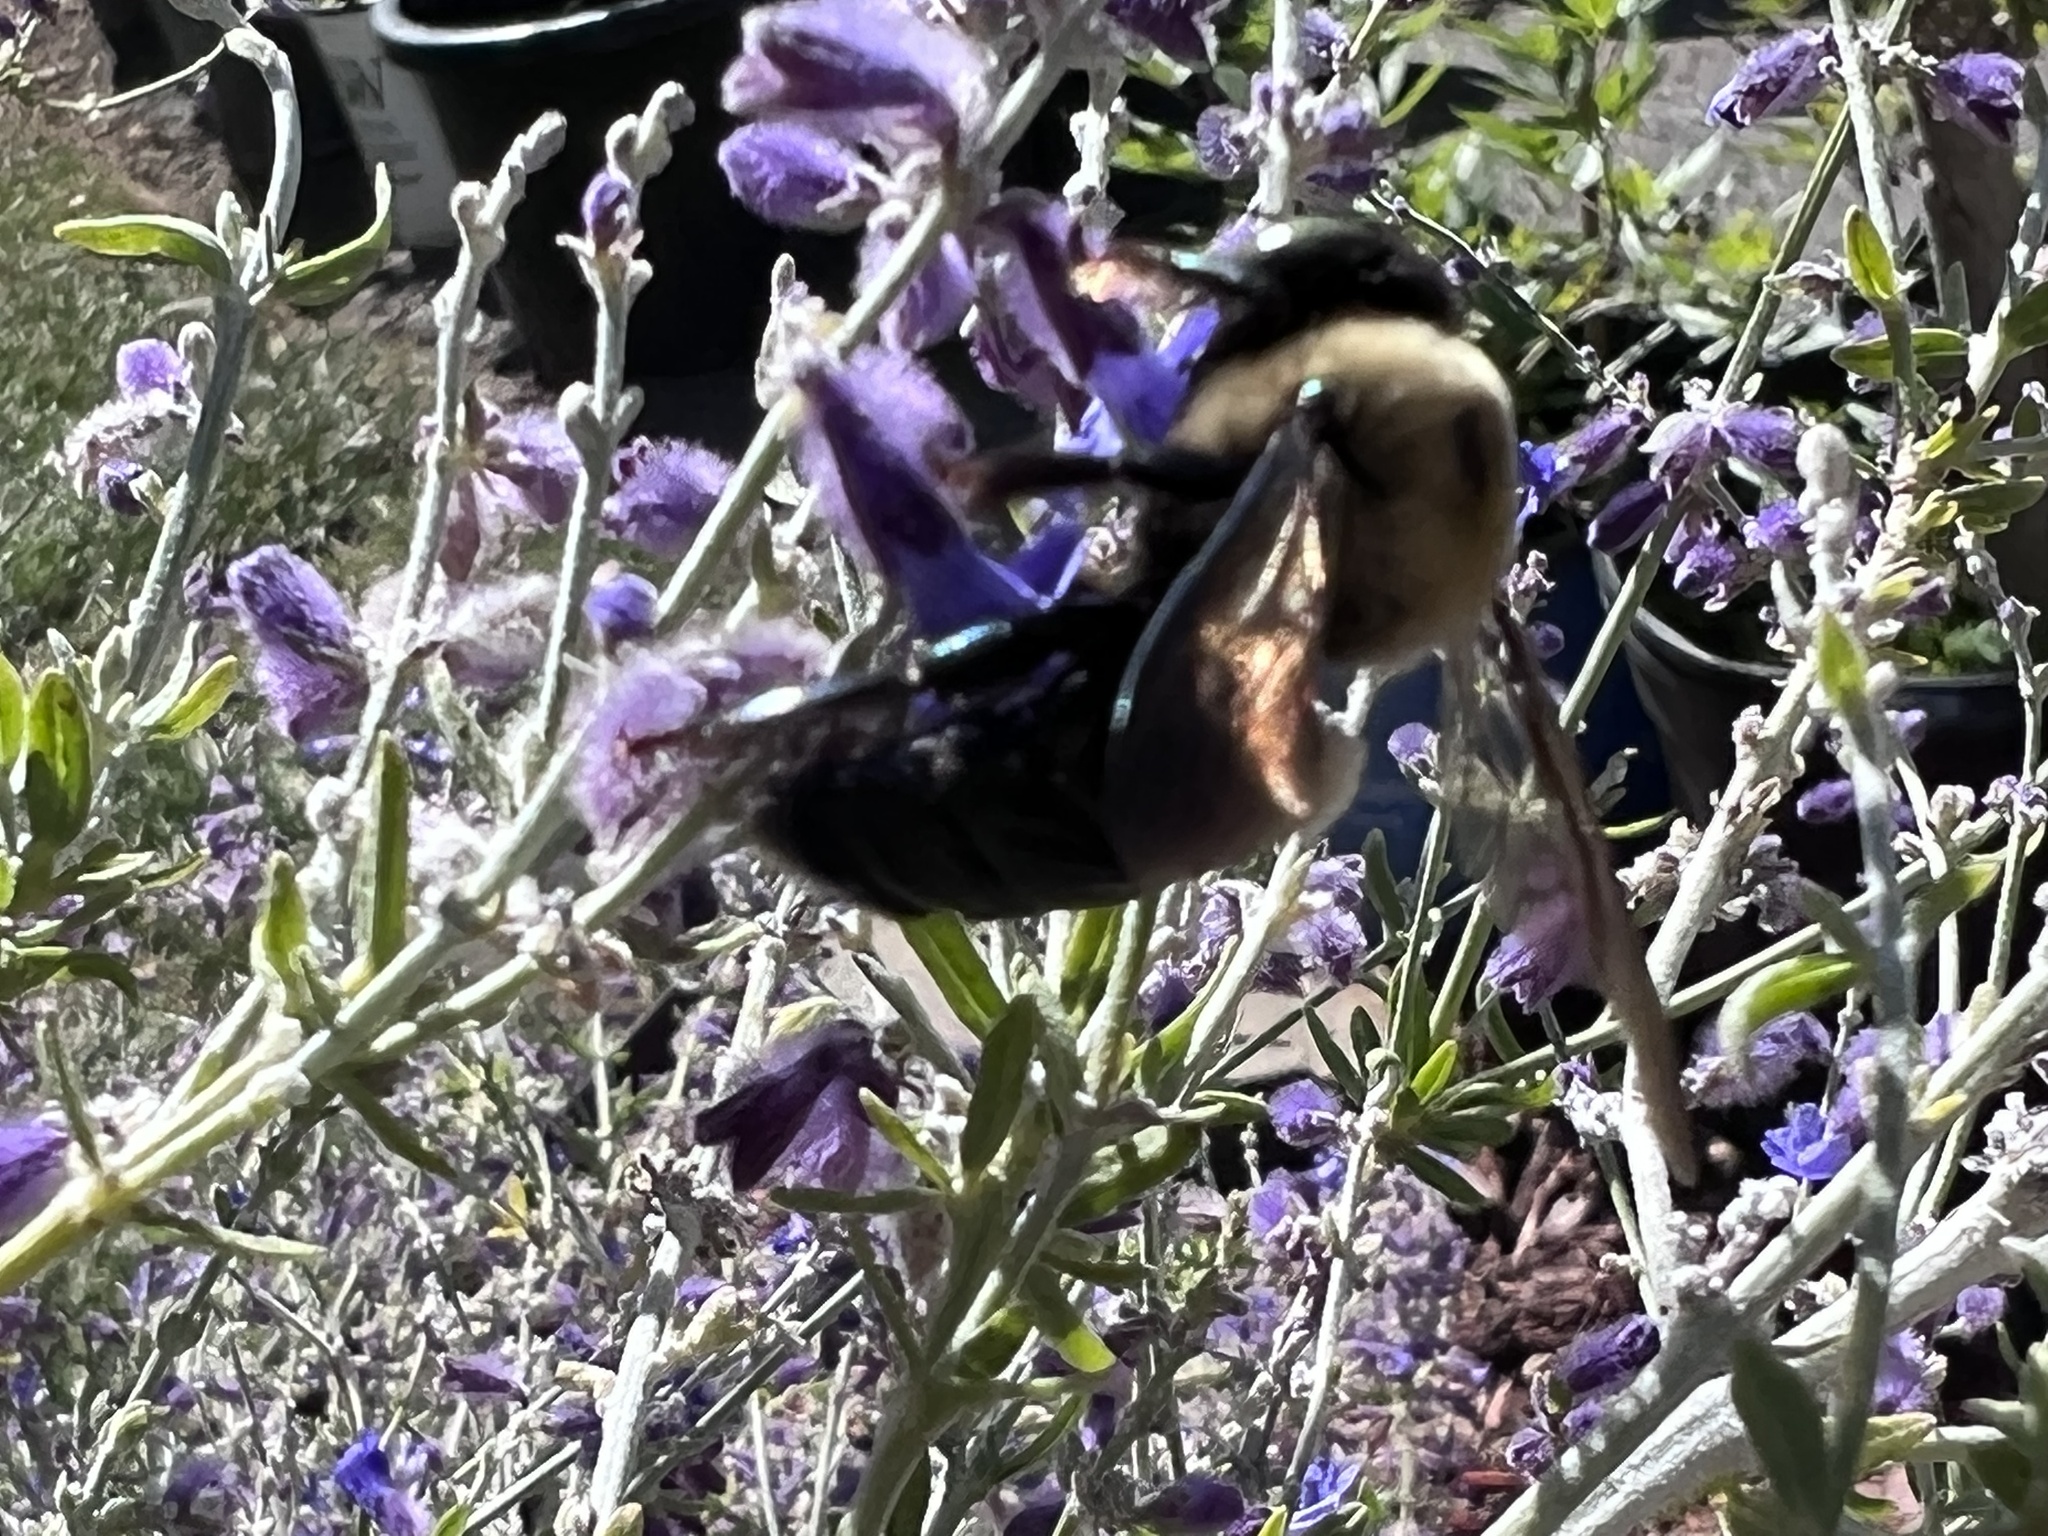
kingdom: Animalia
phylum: Arthropoda
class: Insecta
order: Hymenoptera
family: Apidae
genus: Xylocopa
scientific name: Xylocopa virginica
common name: Carpenter bee
